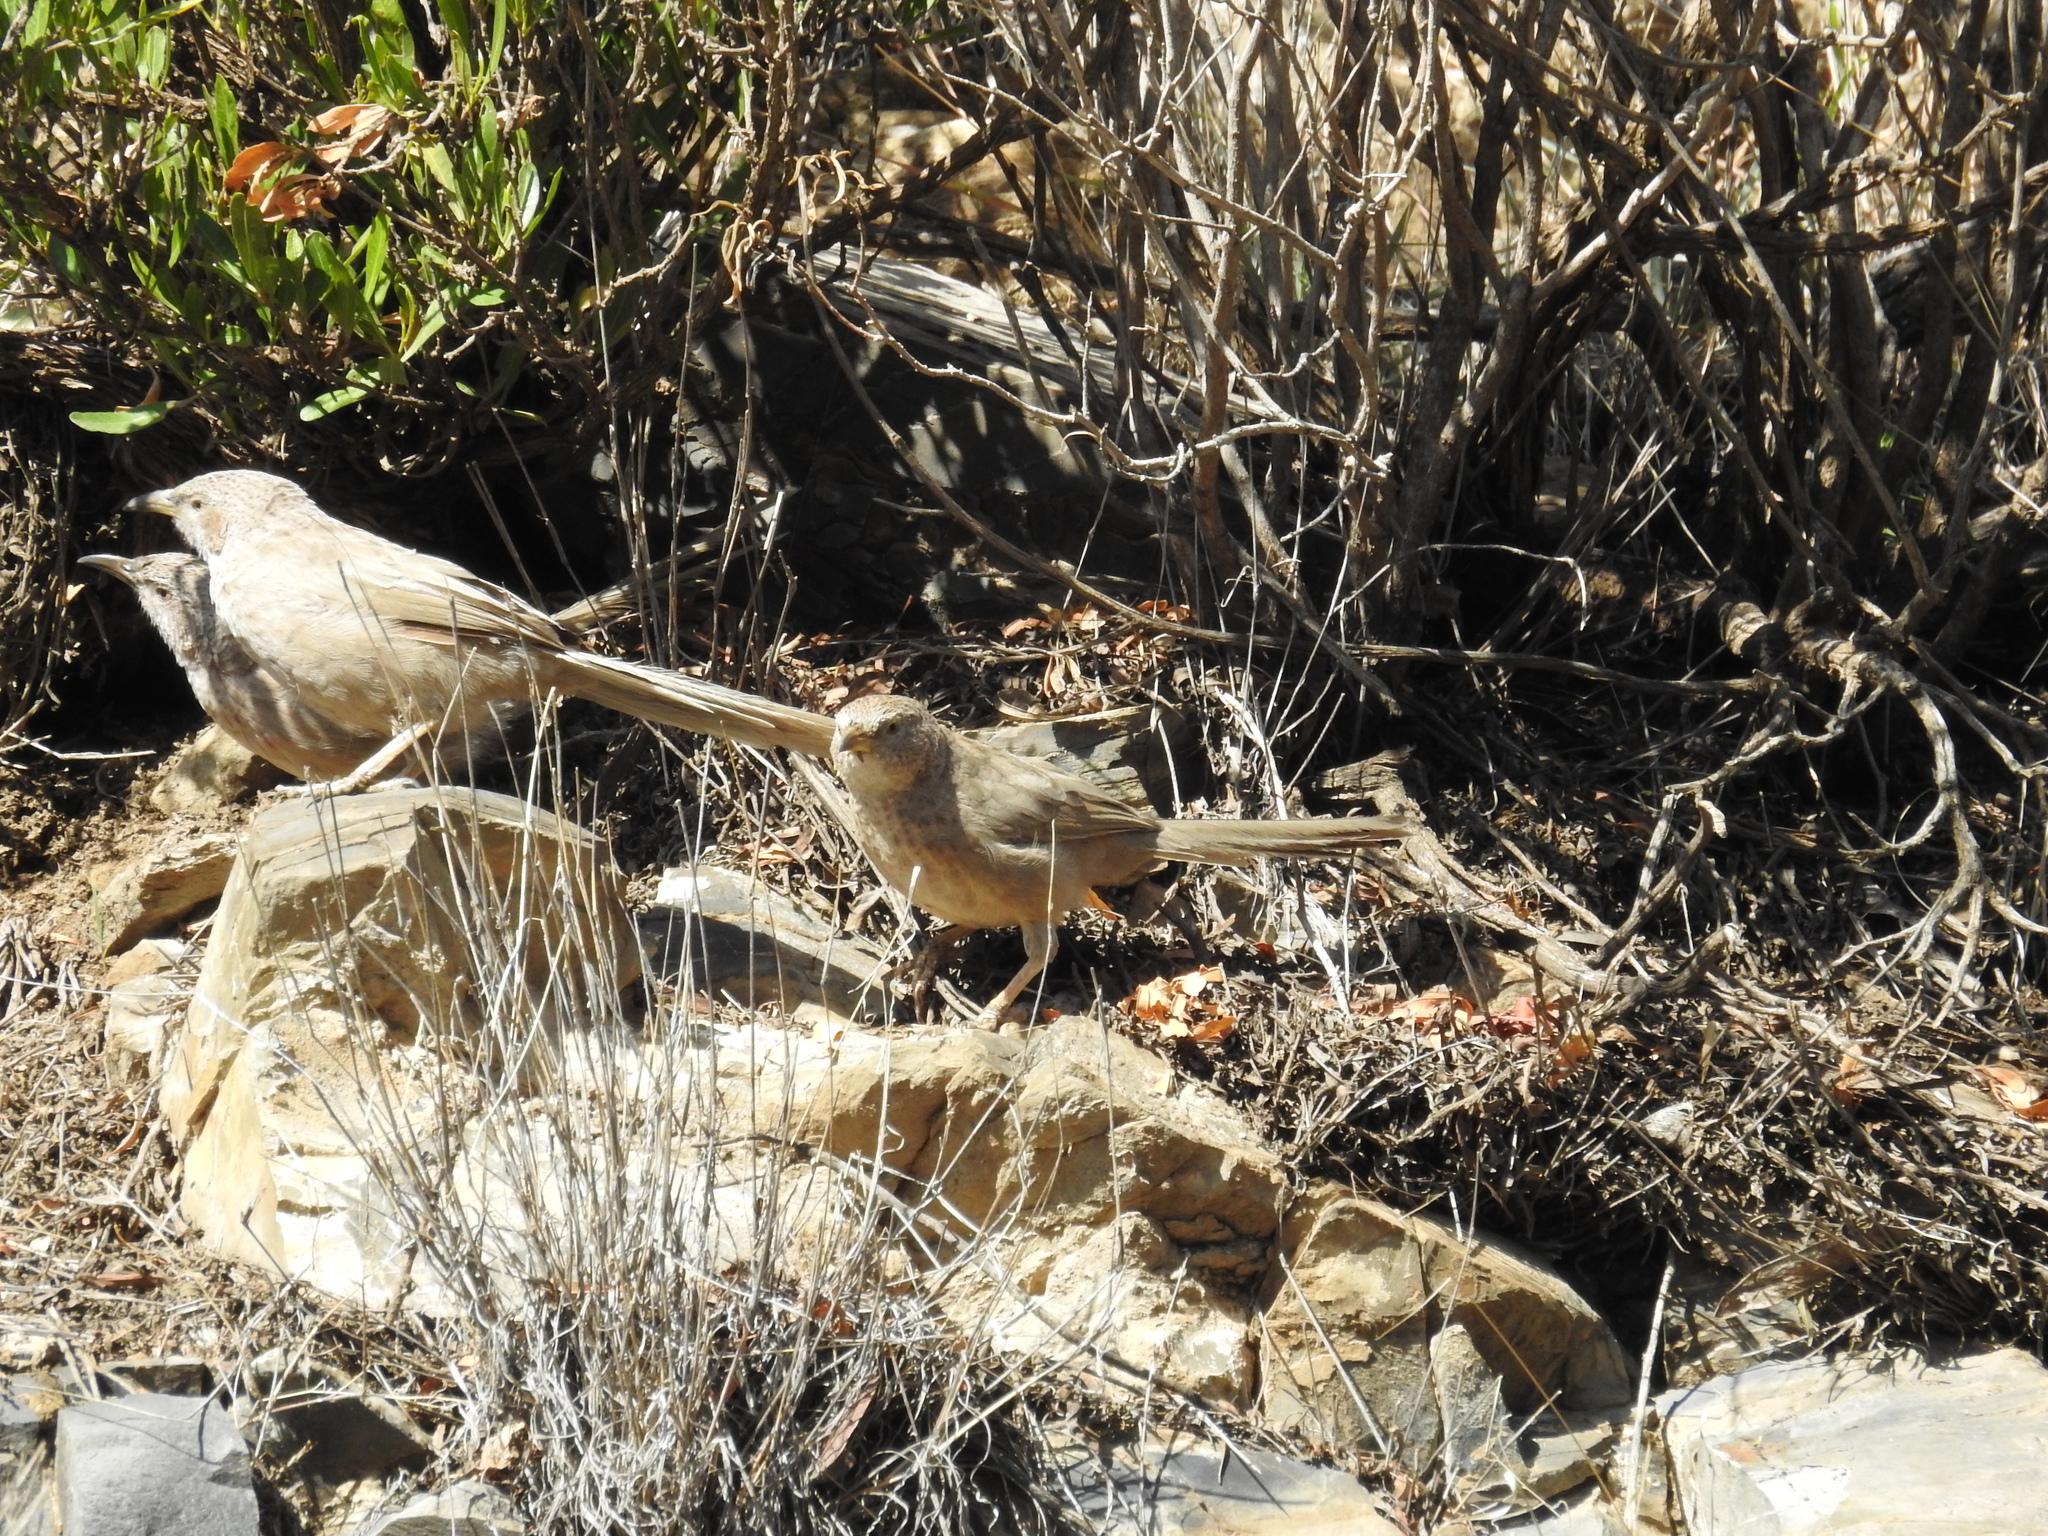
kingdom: Animalia
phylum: Chordata
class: Aves
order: Passeriformes
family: Leiothrichidae
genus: Turdoides
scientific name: Turdoides squamiceps
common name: Arabian babbler
